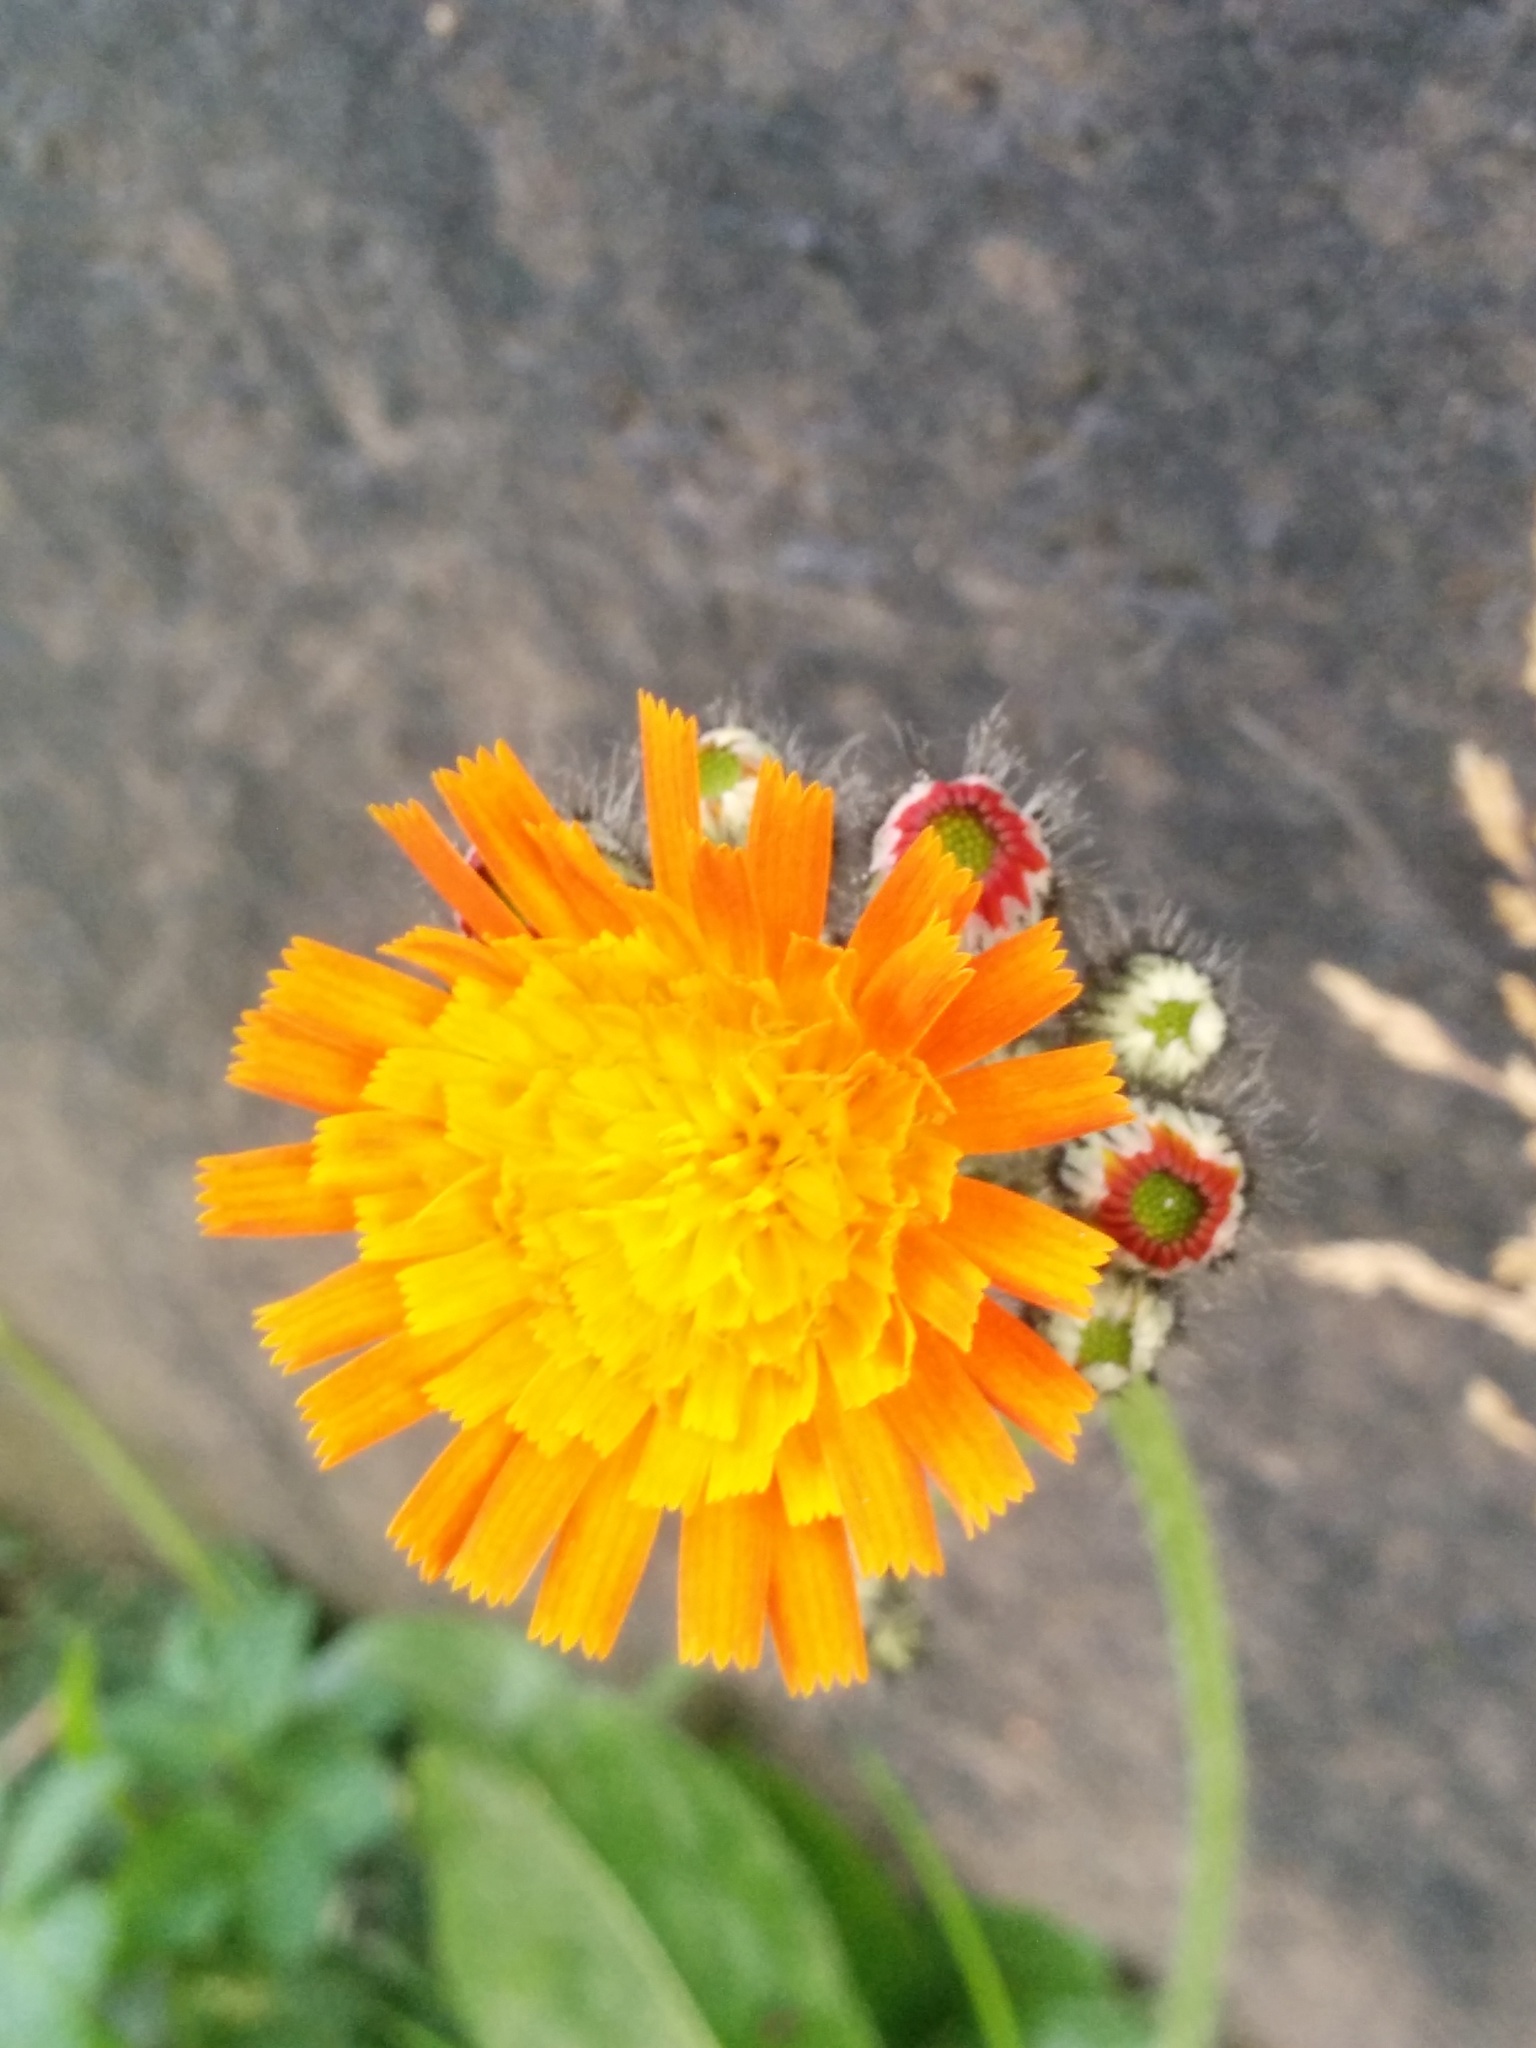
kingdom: Plantae
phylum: Tracheophyta
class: Magnoliopsida
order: Asterales
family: Asteraceae
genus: Pilosella
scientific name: Pilosella aurantiaca
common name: Fox-and-cubs
